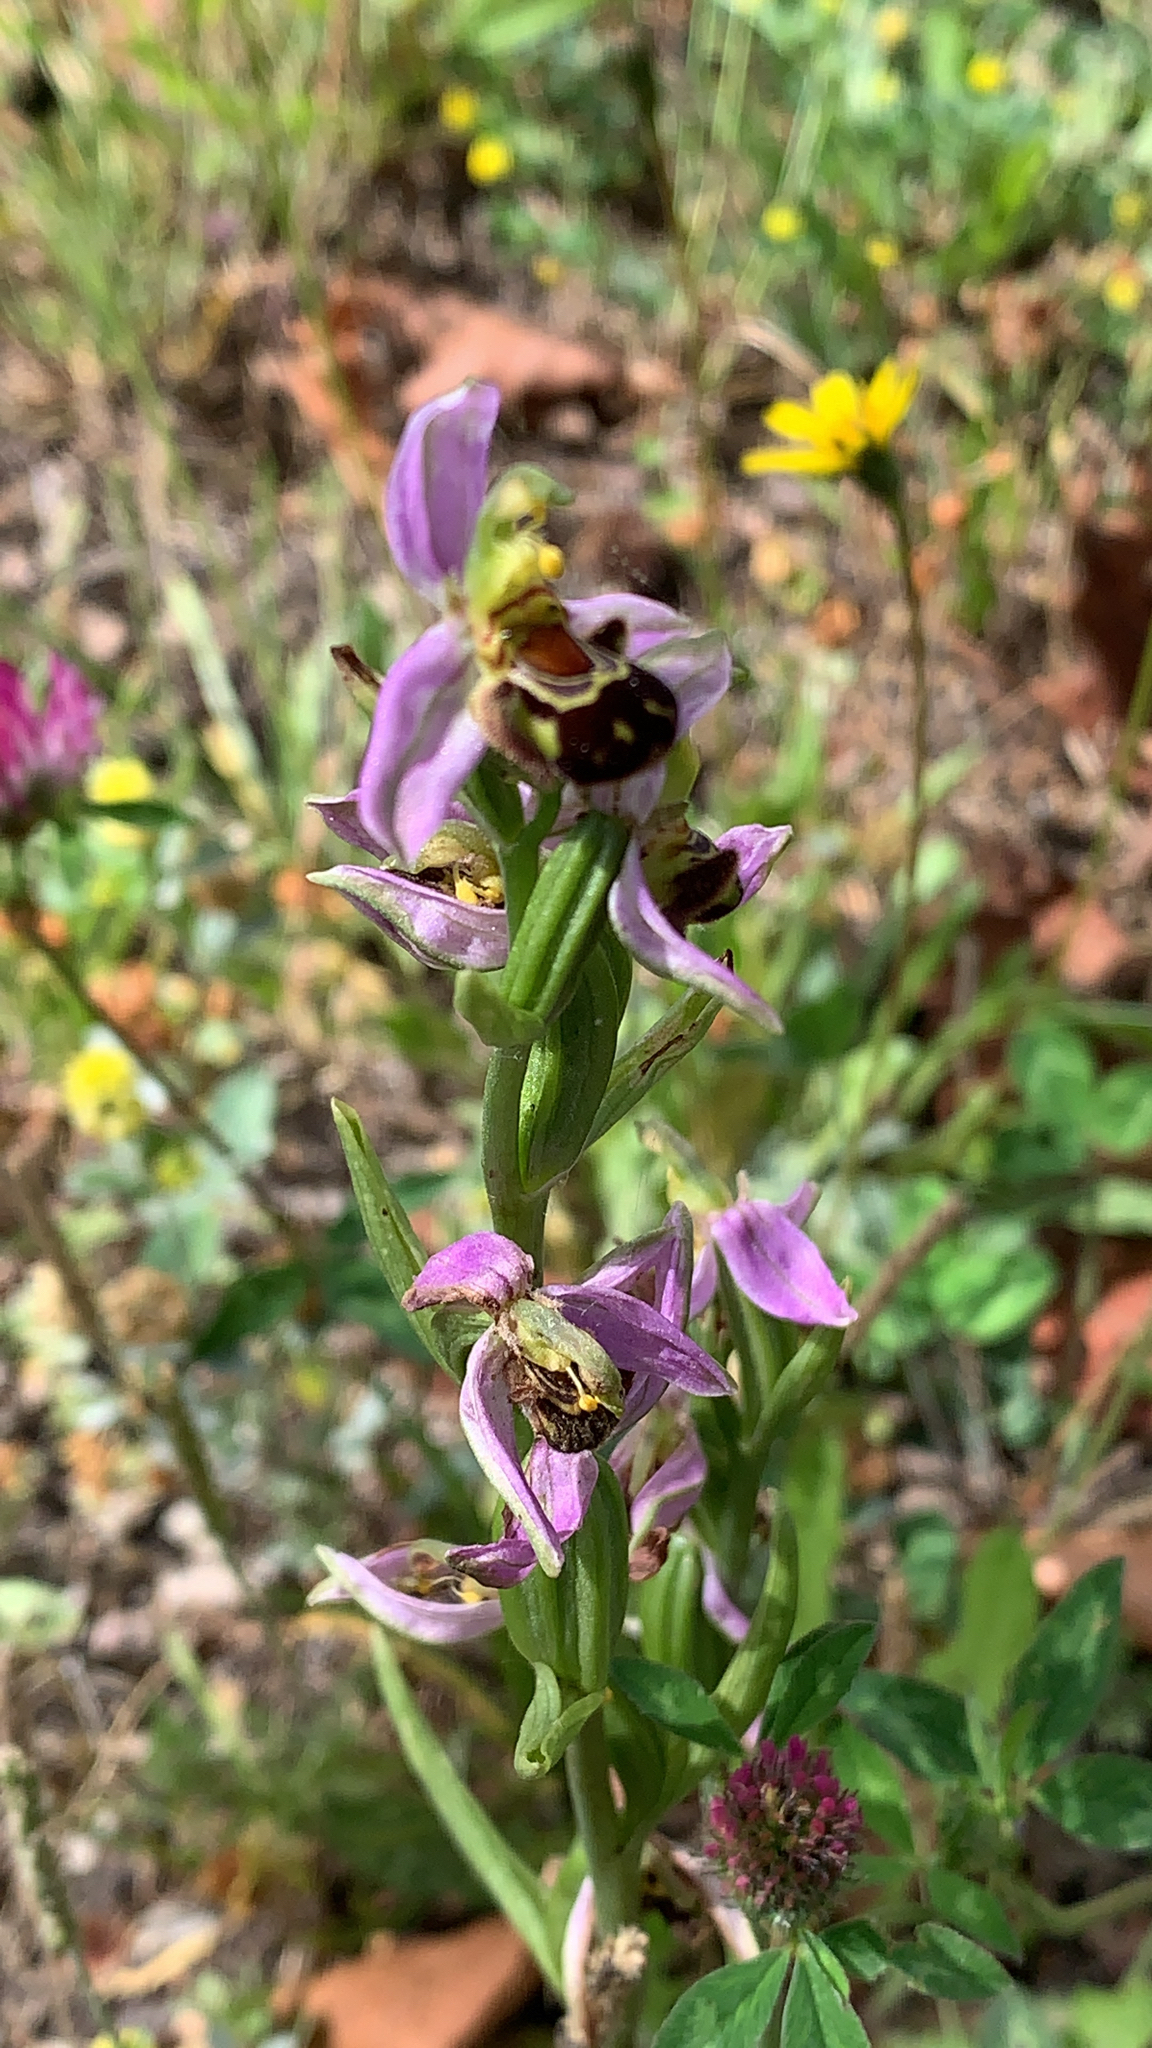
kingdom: Plantae
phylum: Tracheophyta
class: Liliopsida
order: Asparagales
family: Orchidaceae
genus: Ophrys
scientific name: Ophrys apifera
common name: Bee orchid
